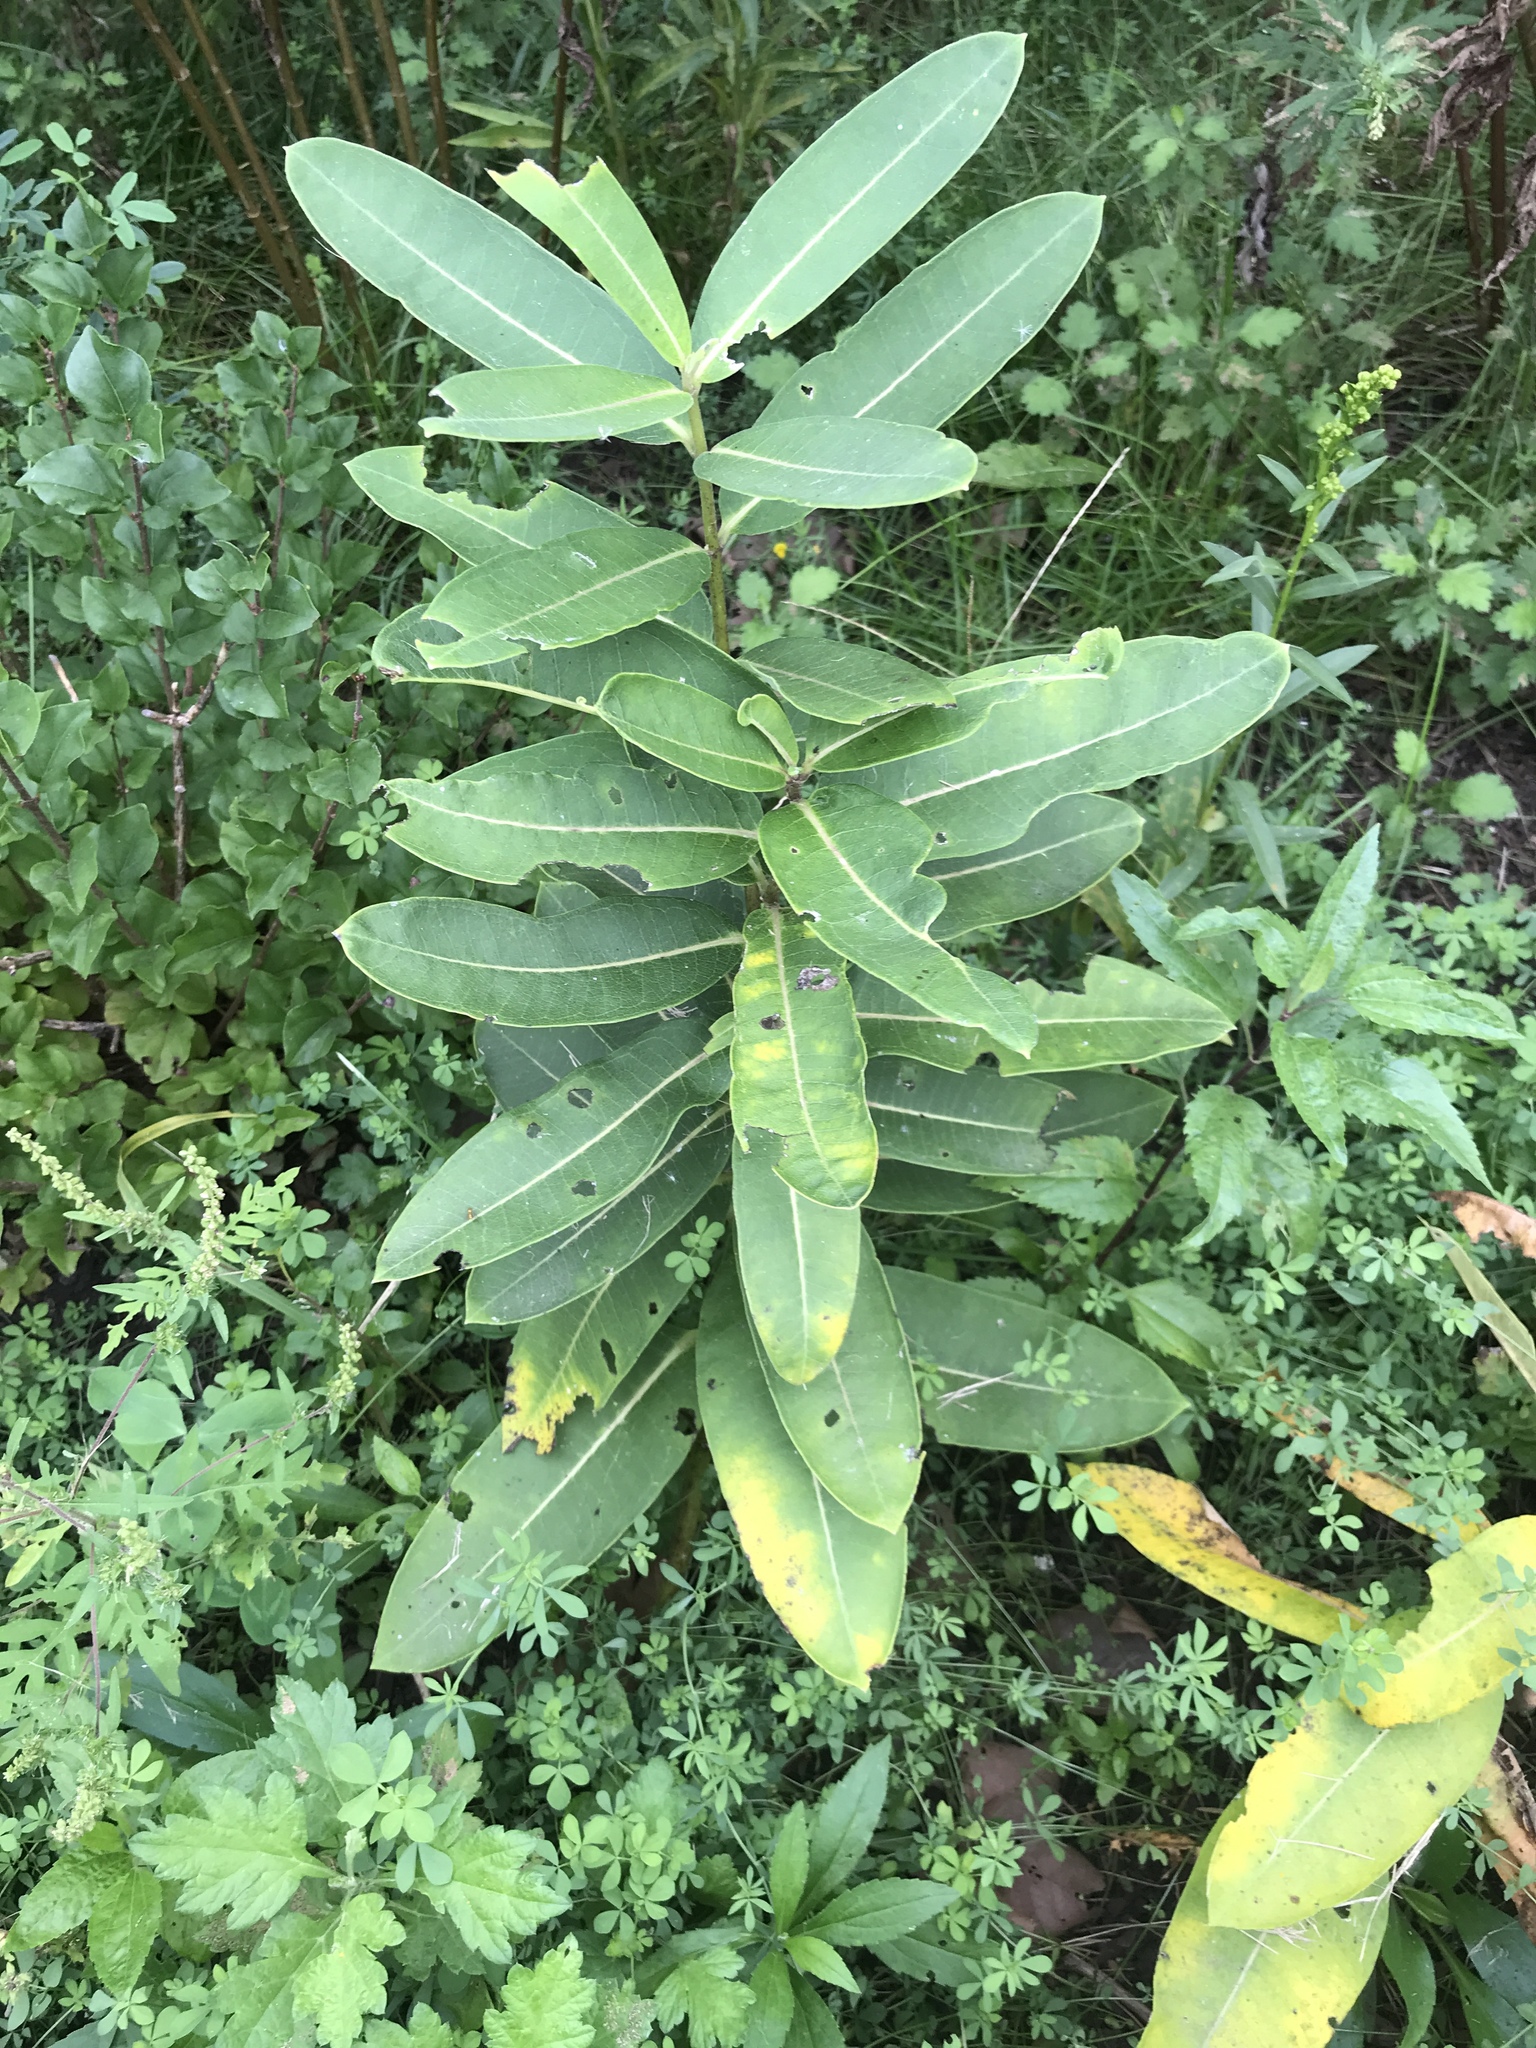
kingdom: Plantae
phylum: Tracheophyta
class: Magnoliopsida
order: Gentianales
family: Apocynaceae
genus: Asclepias
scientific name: Asclepias syriaca
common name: Common milkweed
